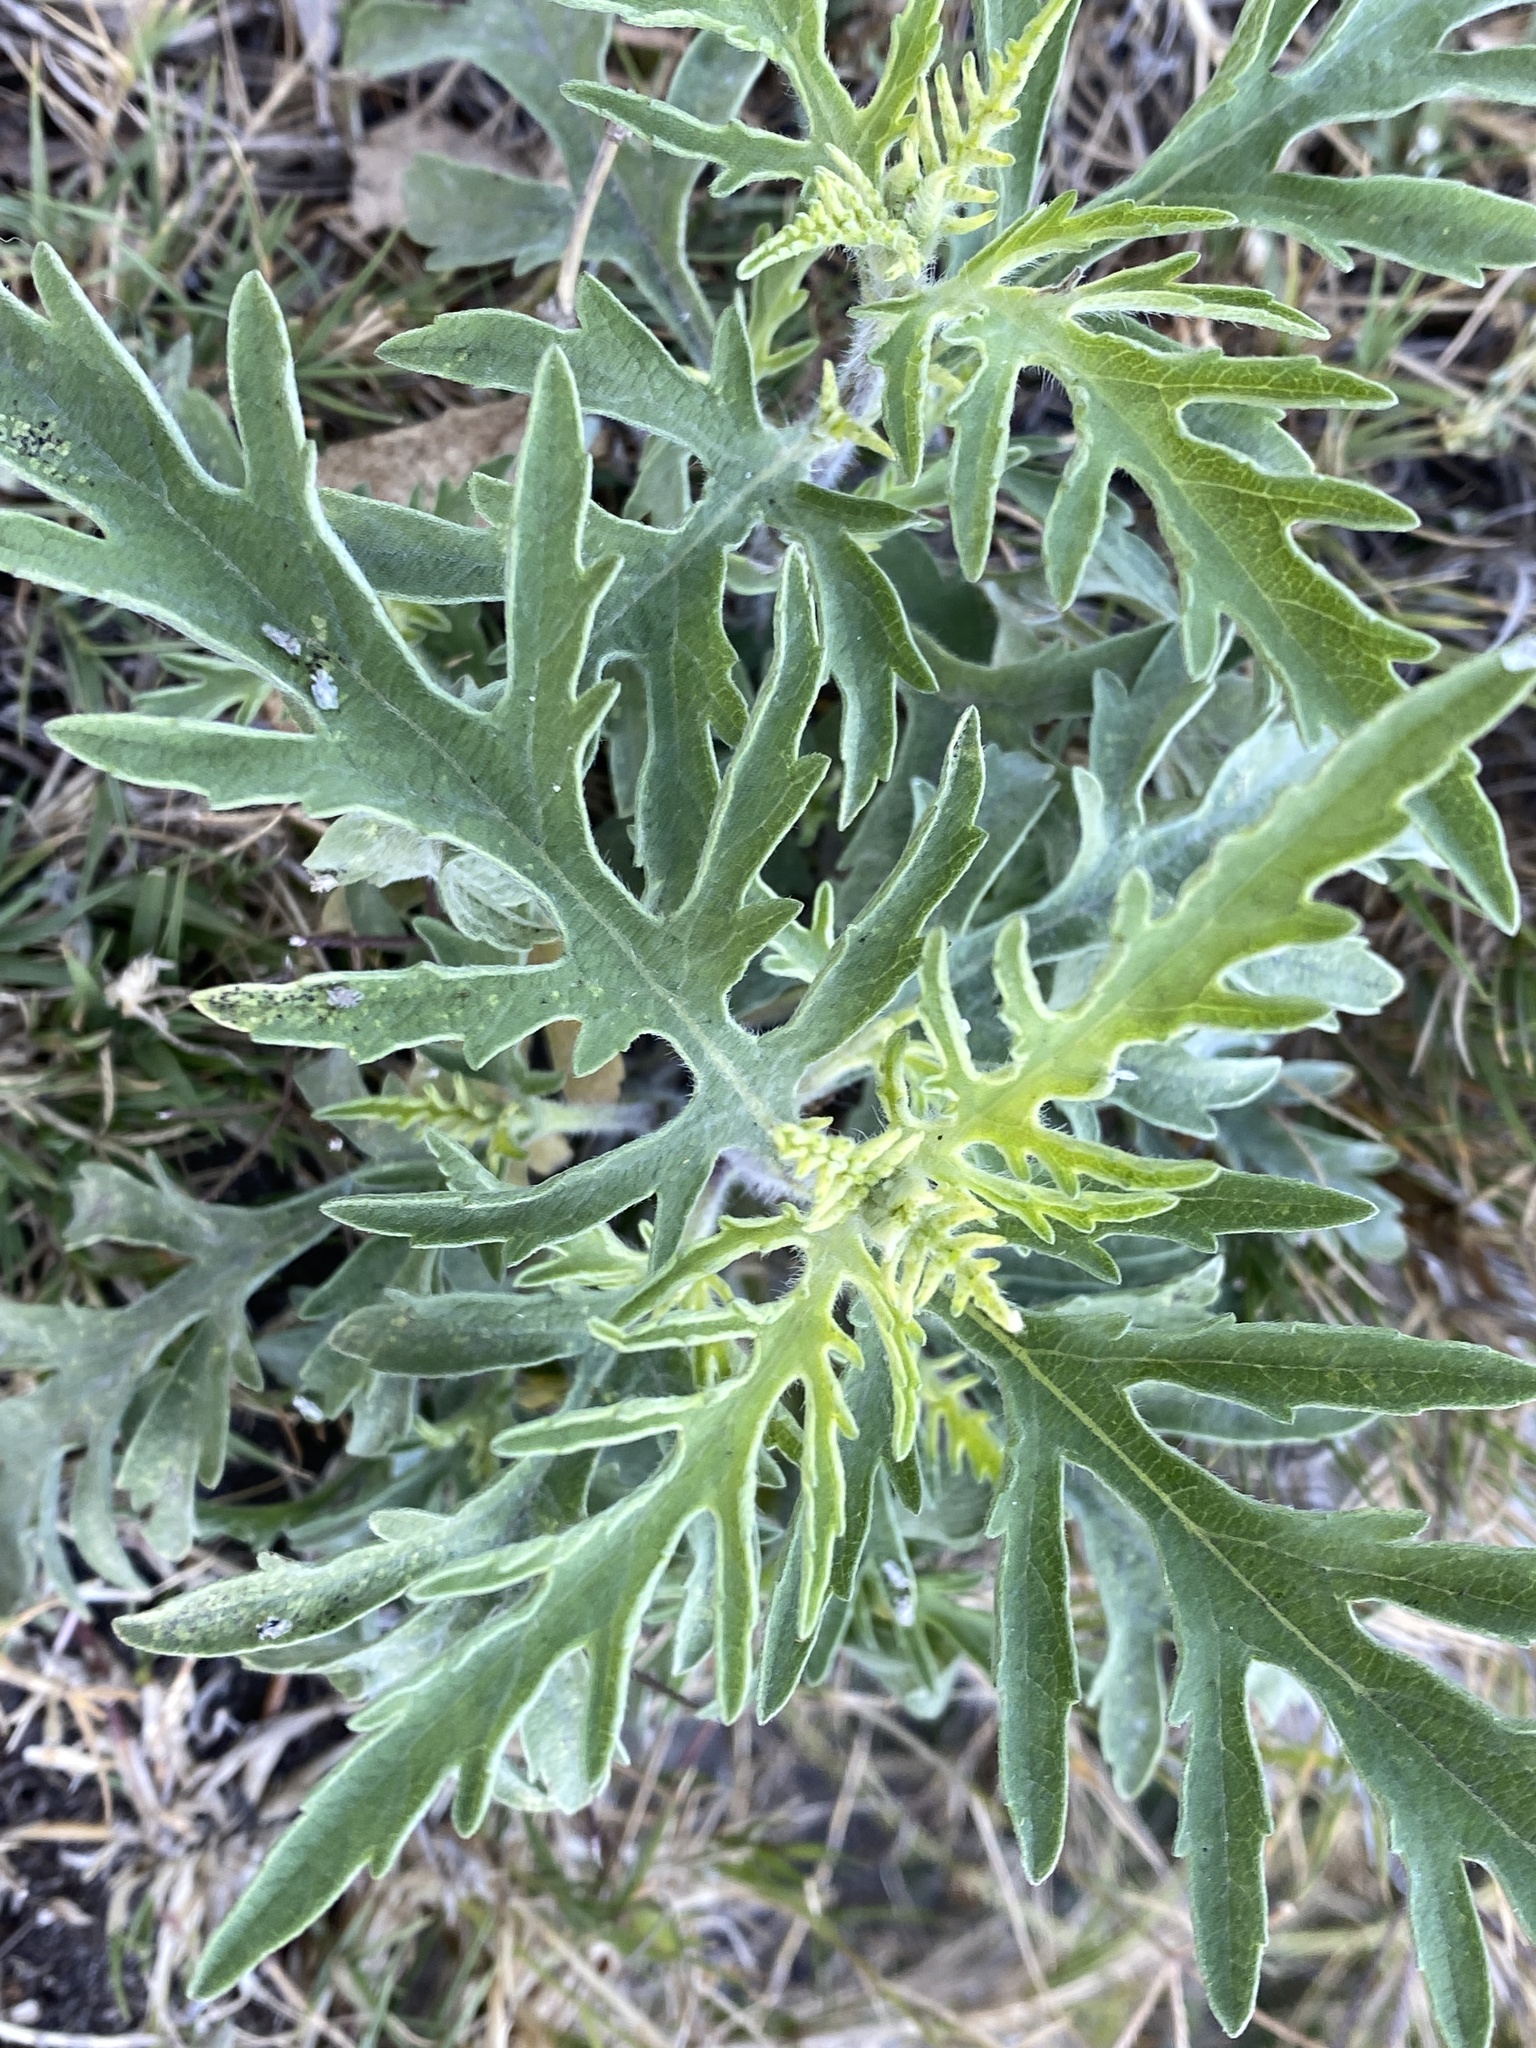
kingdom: Plantae
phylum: Tracheophyta
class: Magnoliopsida
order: Asterales
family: Asteraceae
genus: Ambrosia
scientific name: Ambrosia psilostachya
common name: Perennial ragweed
